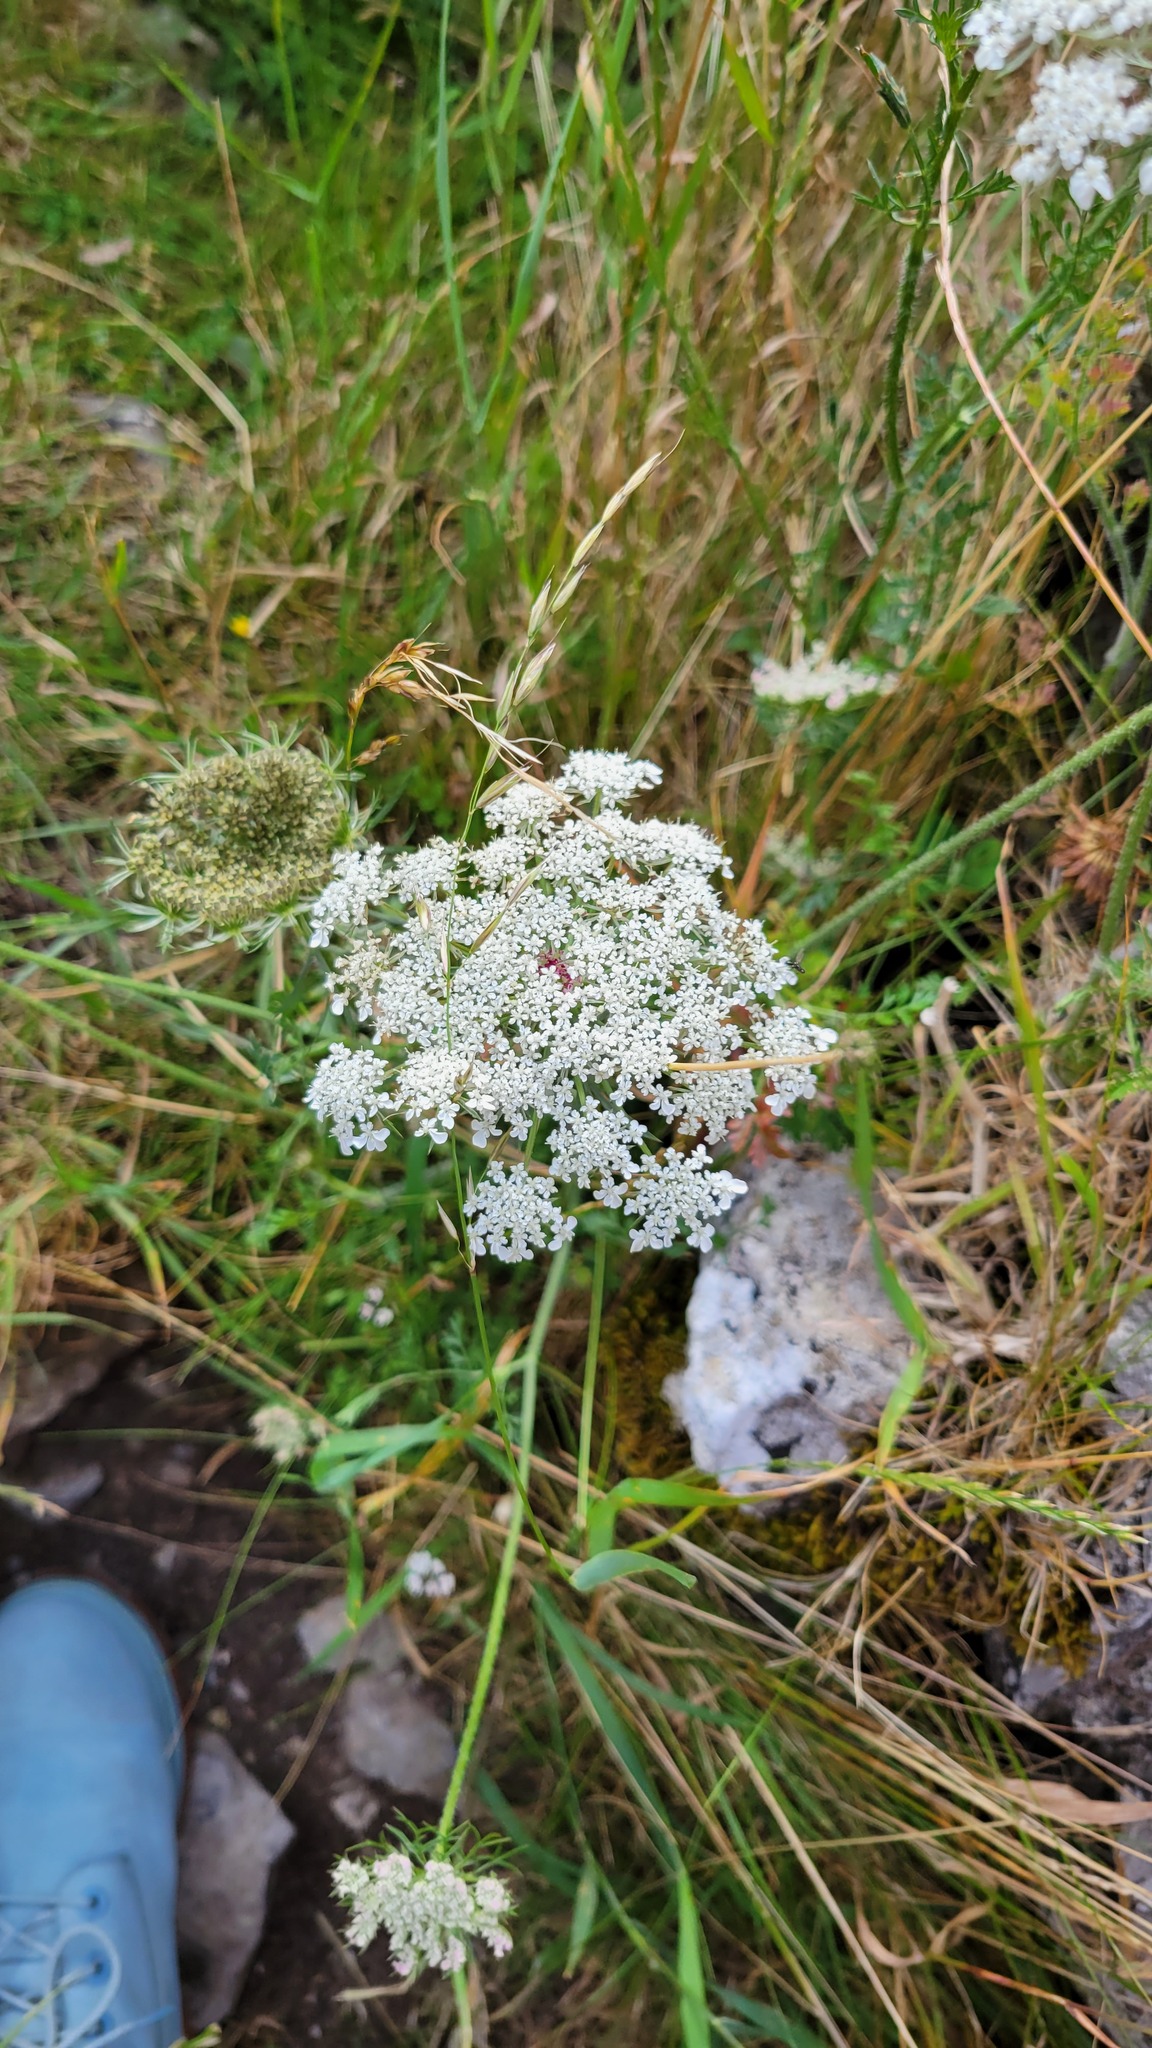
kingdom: Plantae
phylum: Tracheophyta
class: Magnoliopsida
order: Apiales
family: Apiaceae
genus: Daucus
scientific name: Daucus carota
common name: Wild carrot
